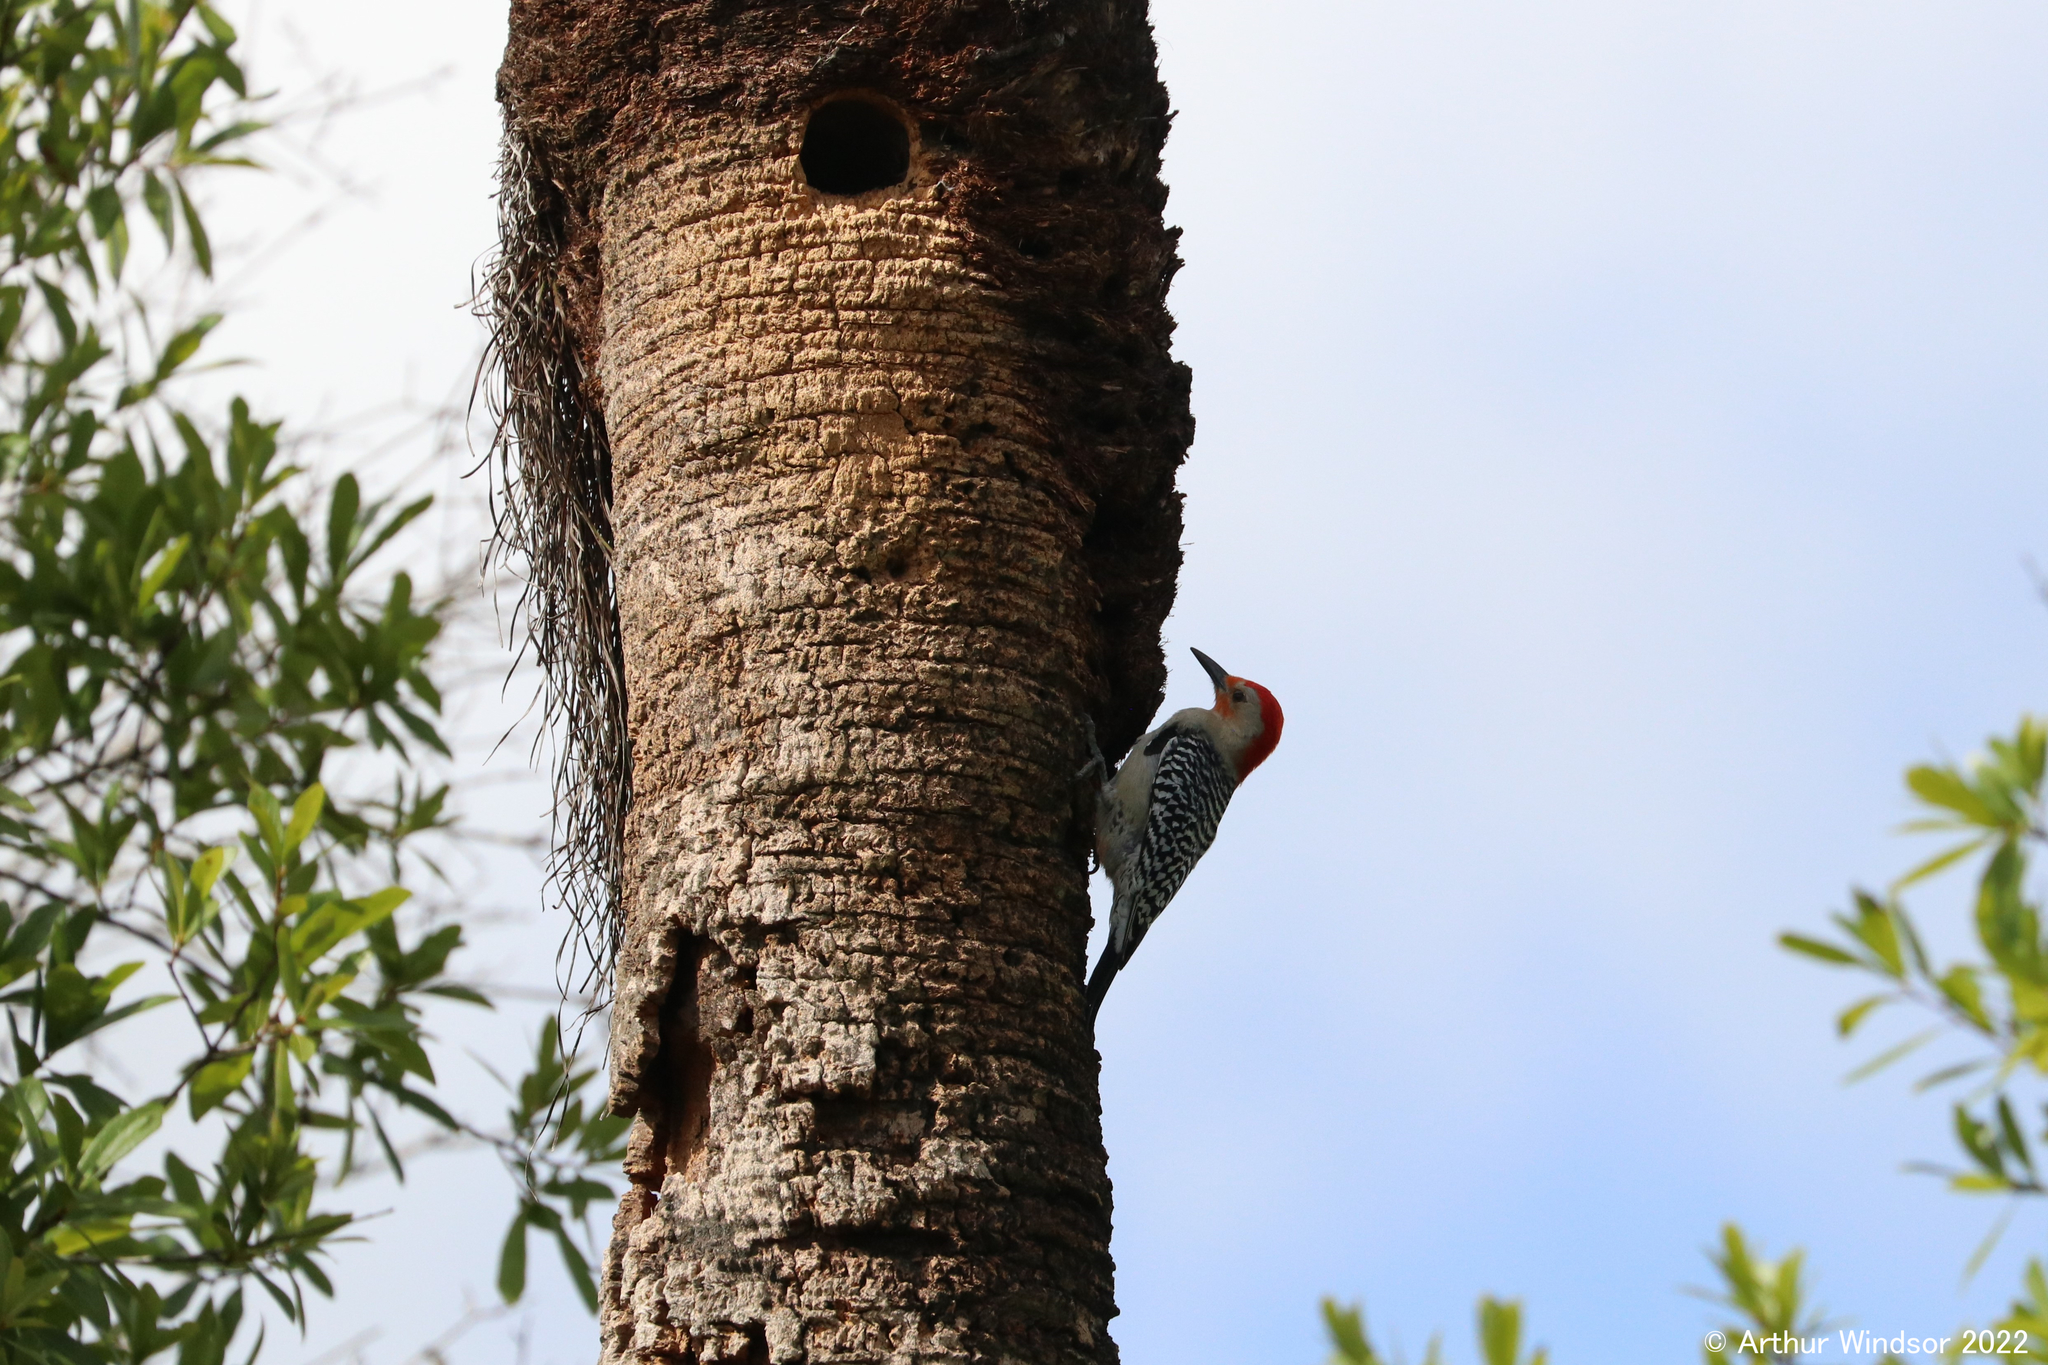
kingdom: Animalia
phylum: Chordata
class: Aves
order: Piciformes
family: Picidae
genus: Melanerpes
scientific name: Melanerpes carolinus
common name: Red-bellied woodpecker
